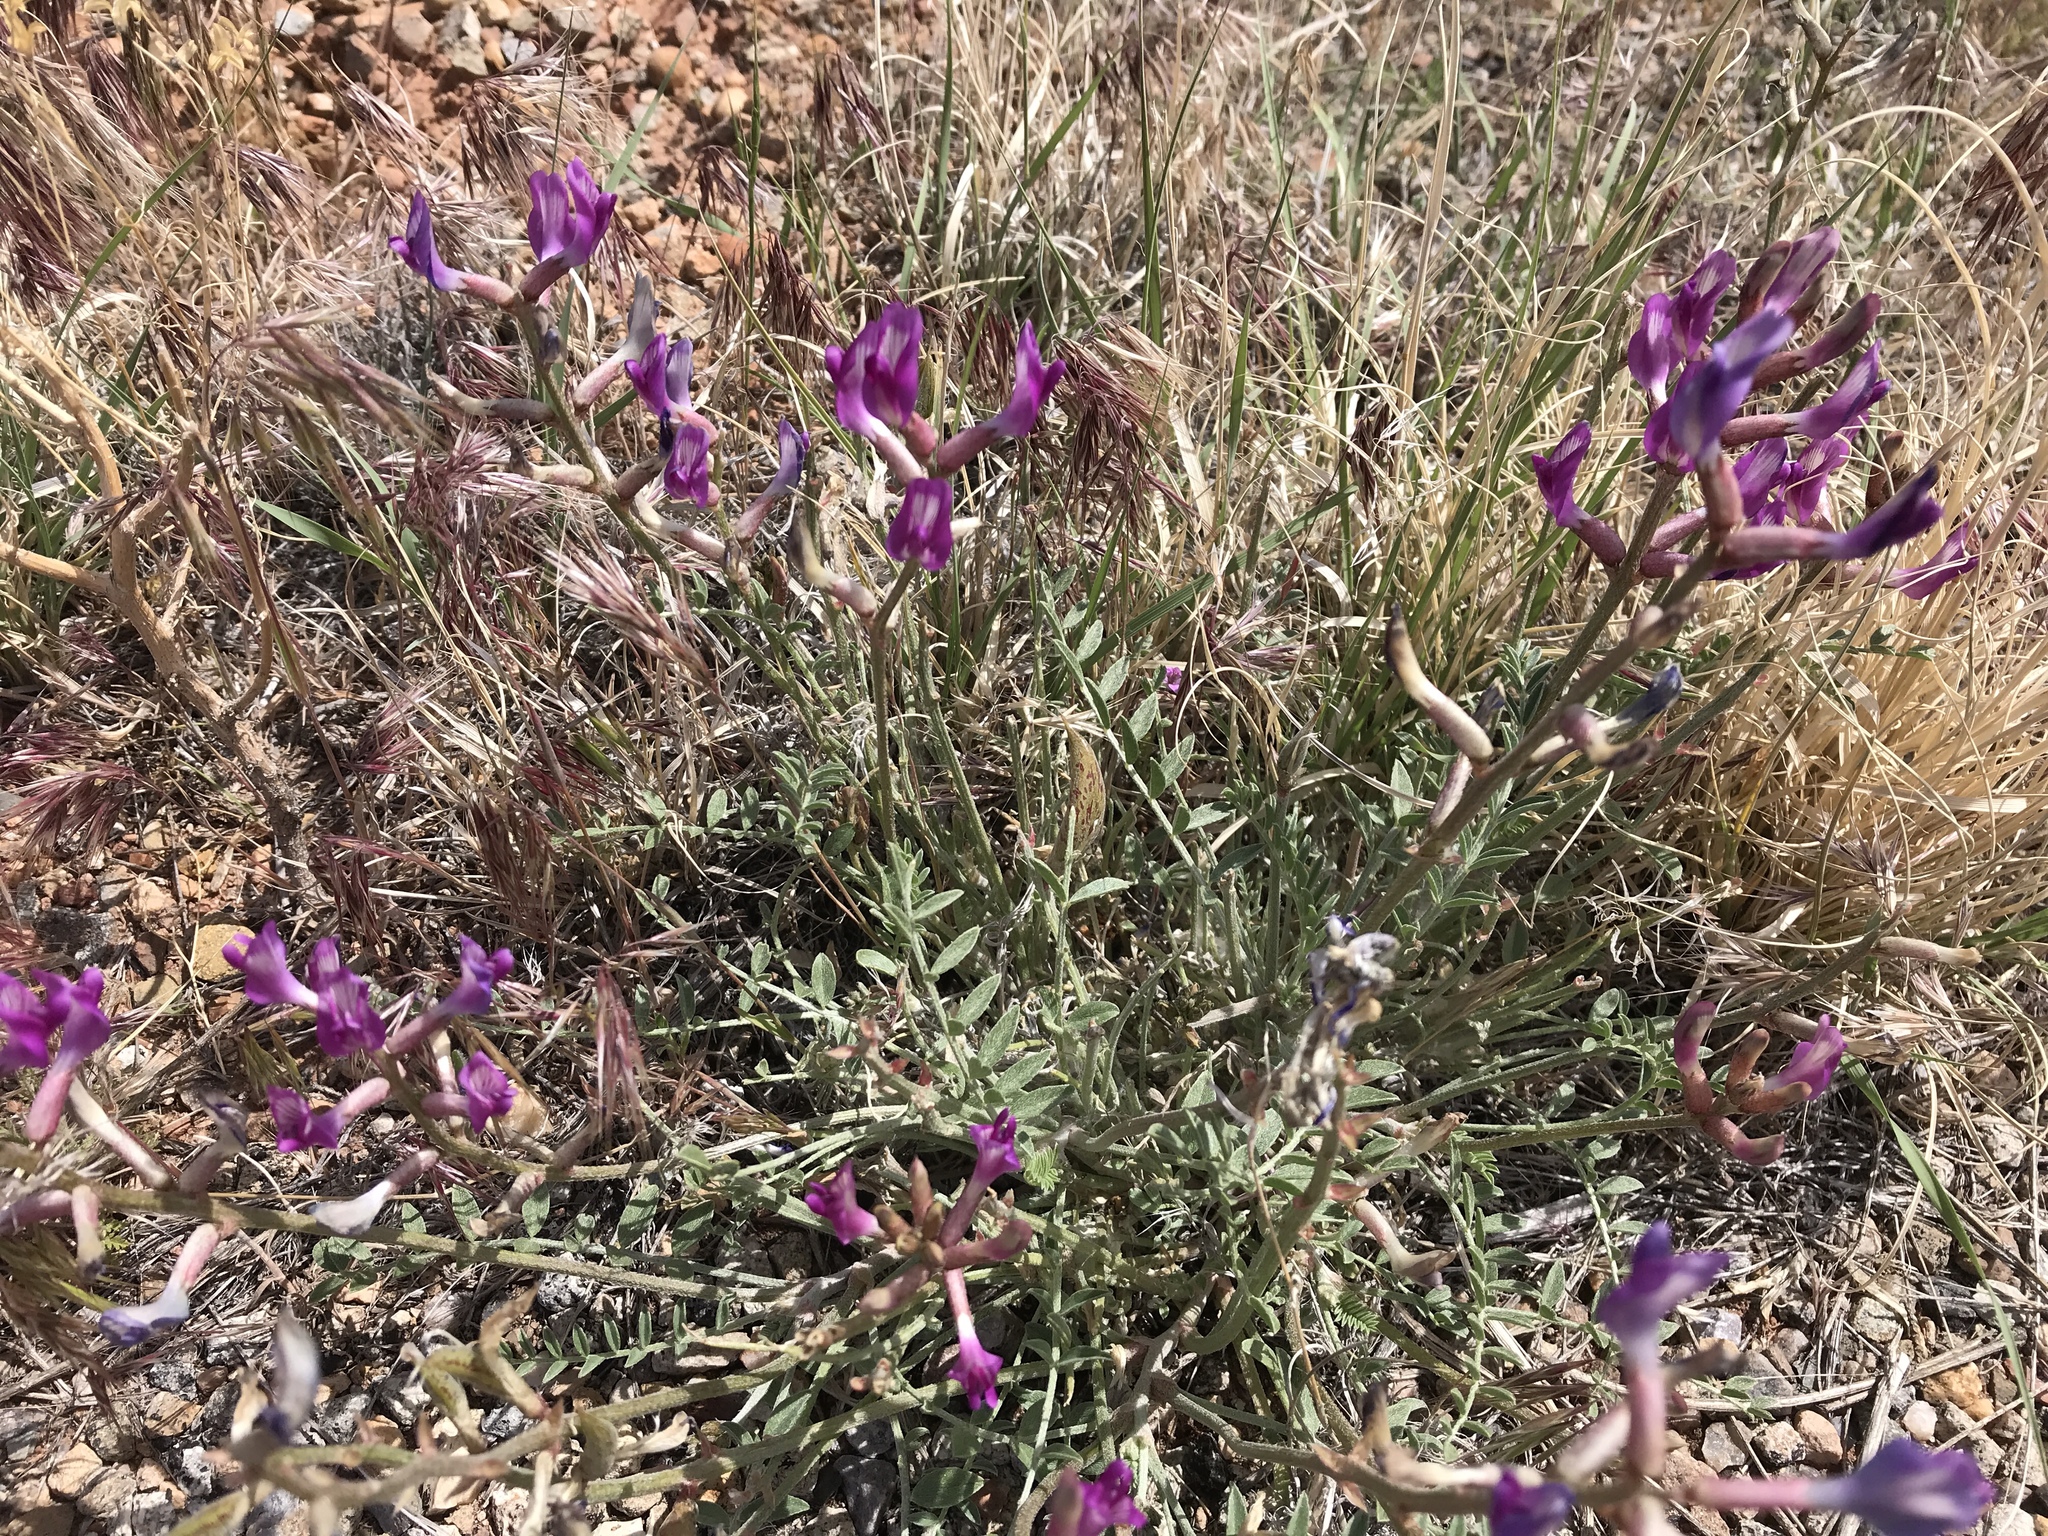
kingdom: Plantae
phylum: Tracheophyta
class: Magnoliopsida
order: Fabales
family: Fabaceae
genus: Astragalus
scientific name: Astragalus amphioxys
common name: Crescent milk-vetch
